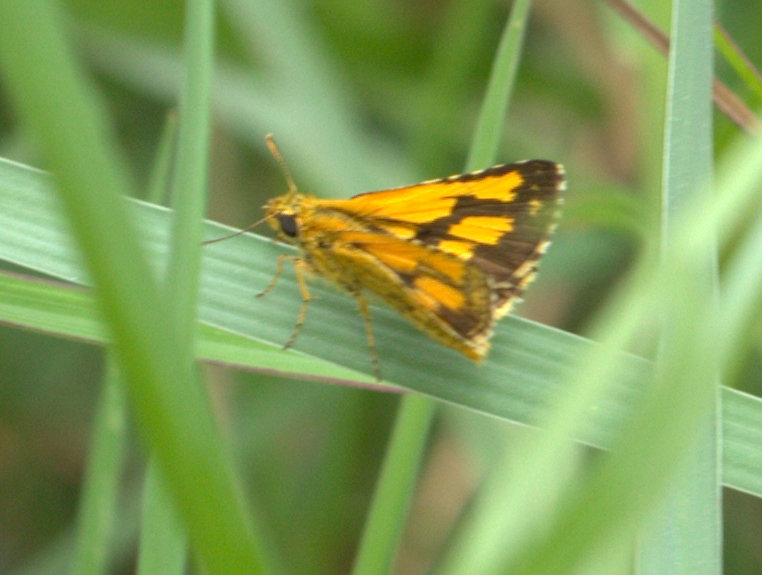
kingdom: Animalia
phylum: Arthropoda
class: Insecta
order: Lepidoptera
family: Hesperiidae
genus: Ampittia
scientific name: Ampittia dioscorides
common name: Common bush hopper
